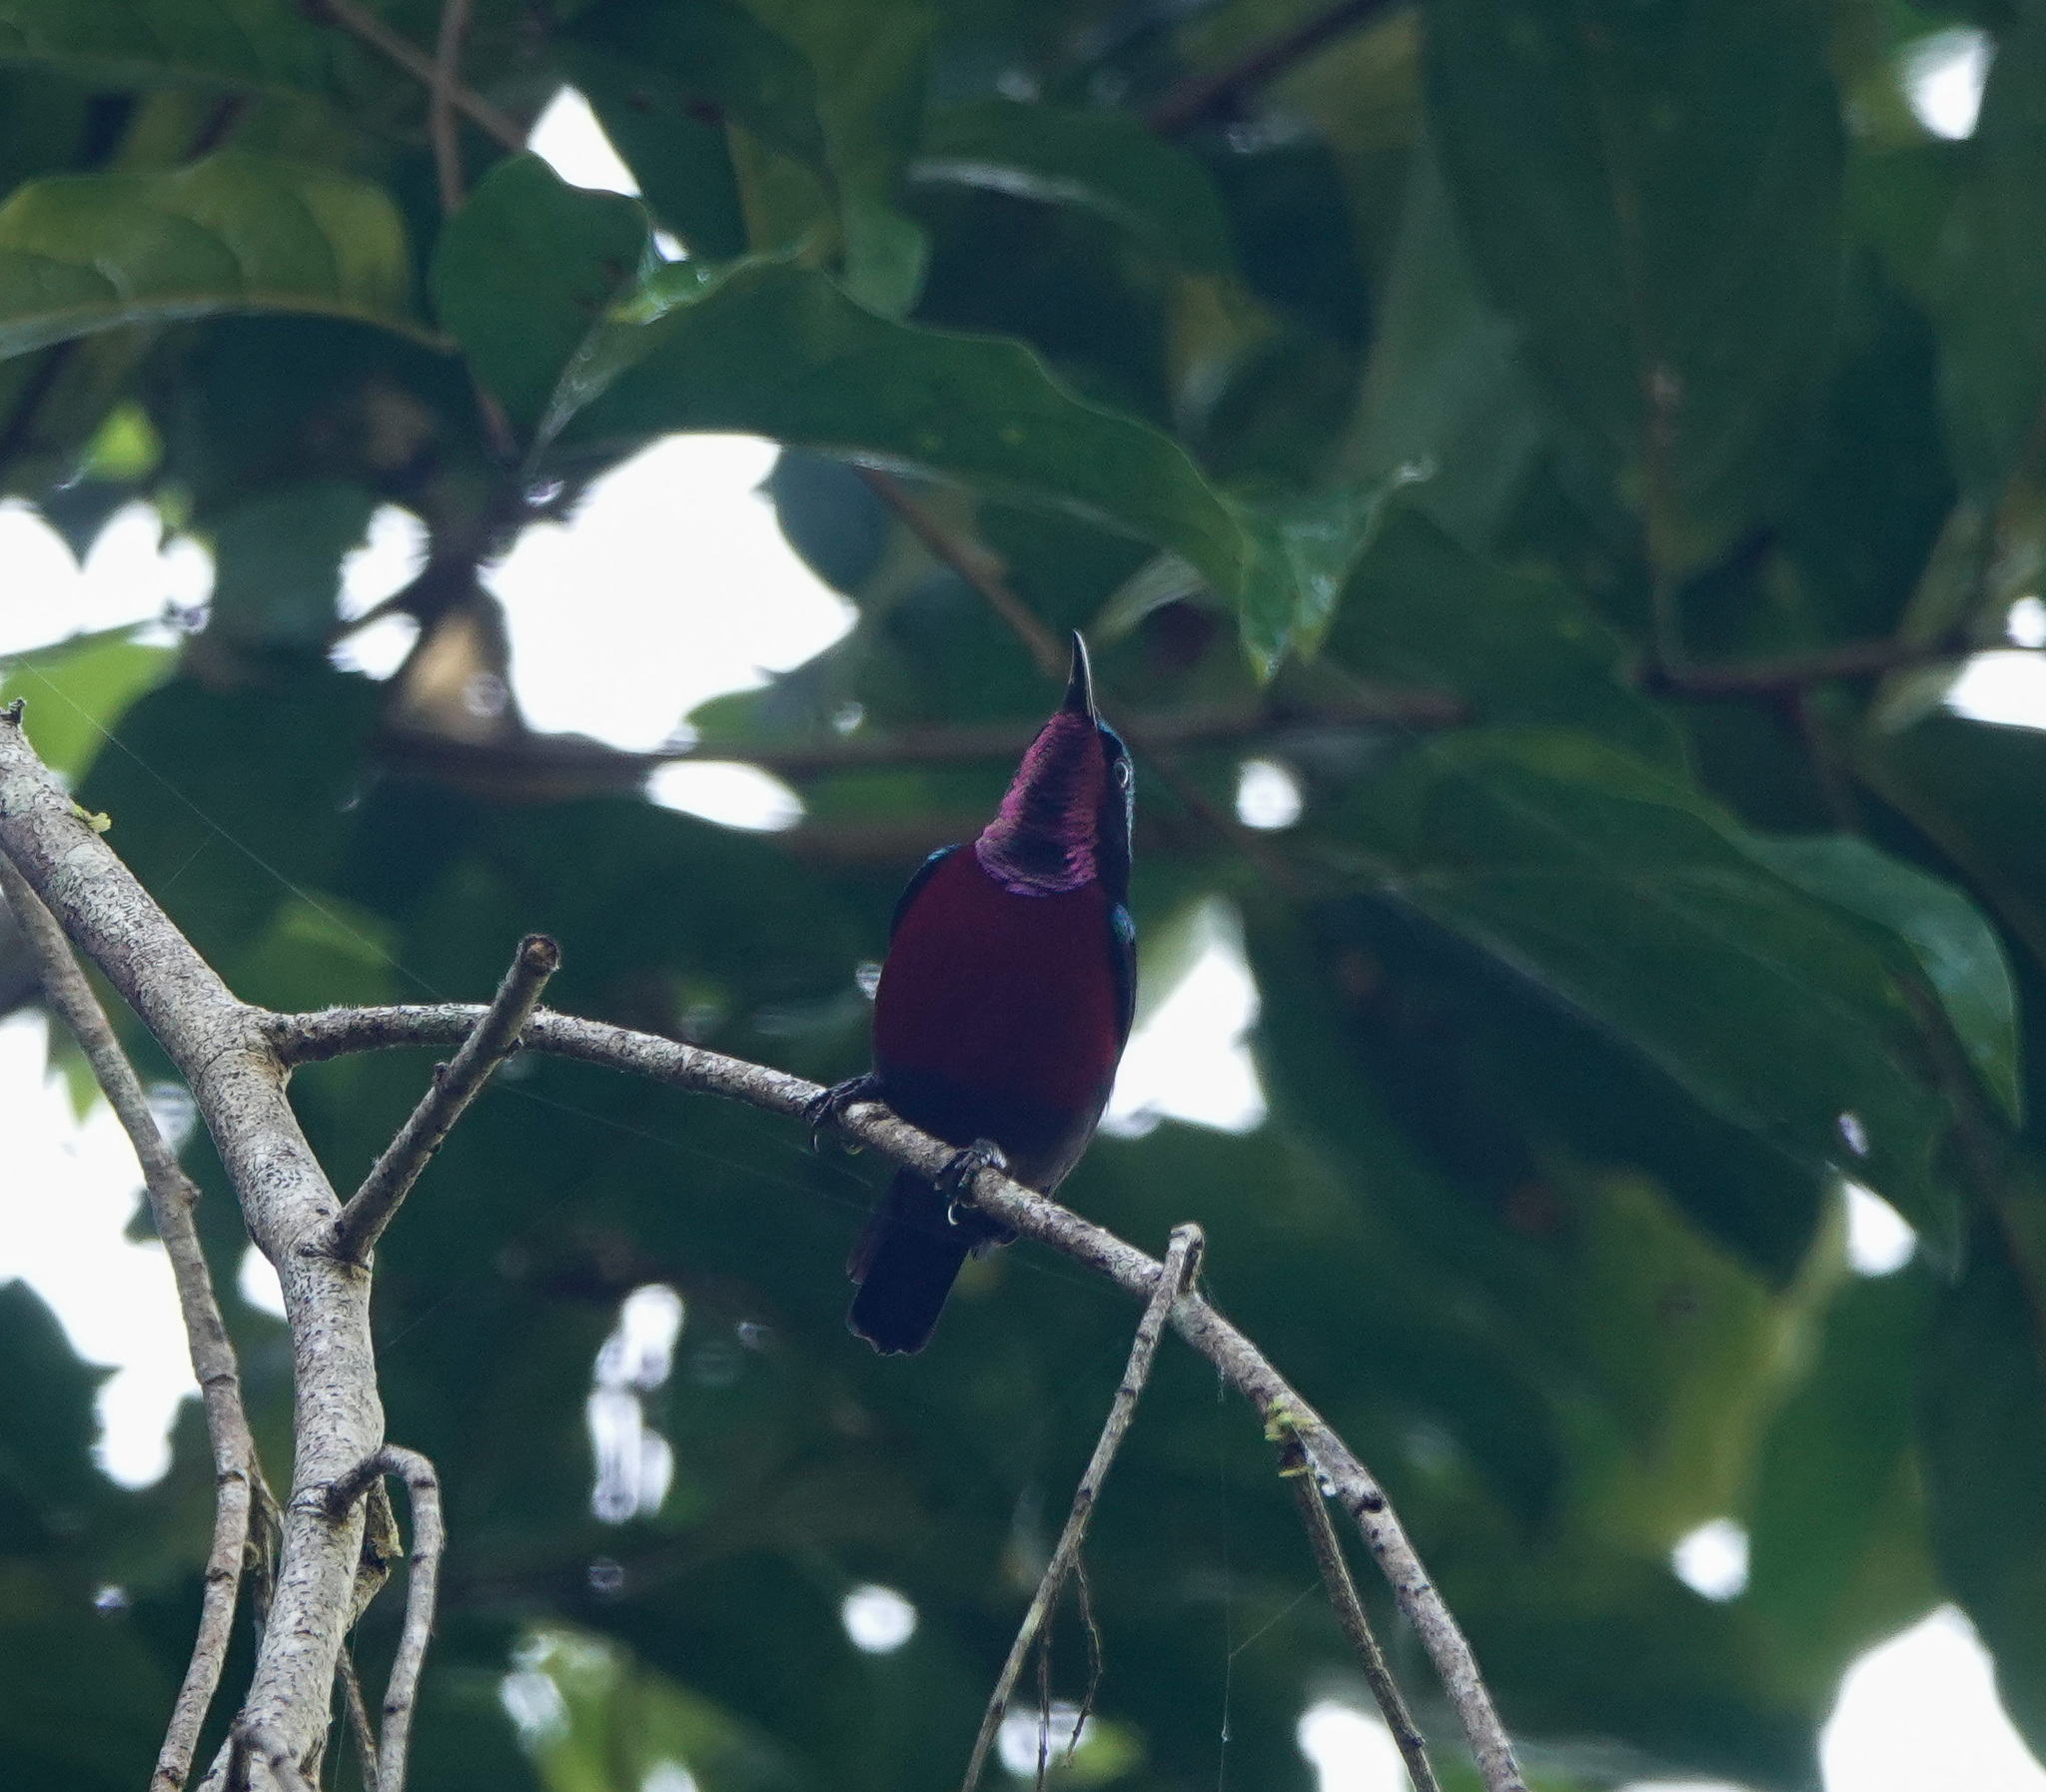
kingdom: Animalia
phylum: Chordata
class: Aves
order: Passeriformes
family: Nectariniidae
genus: Leptocoma
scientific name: Leptocoma brasiliana
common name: Van hasselt's sunbird
